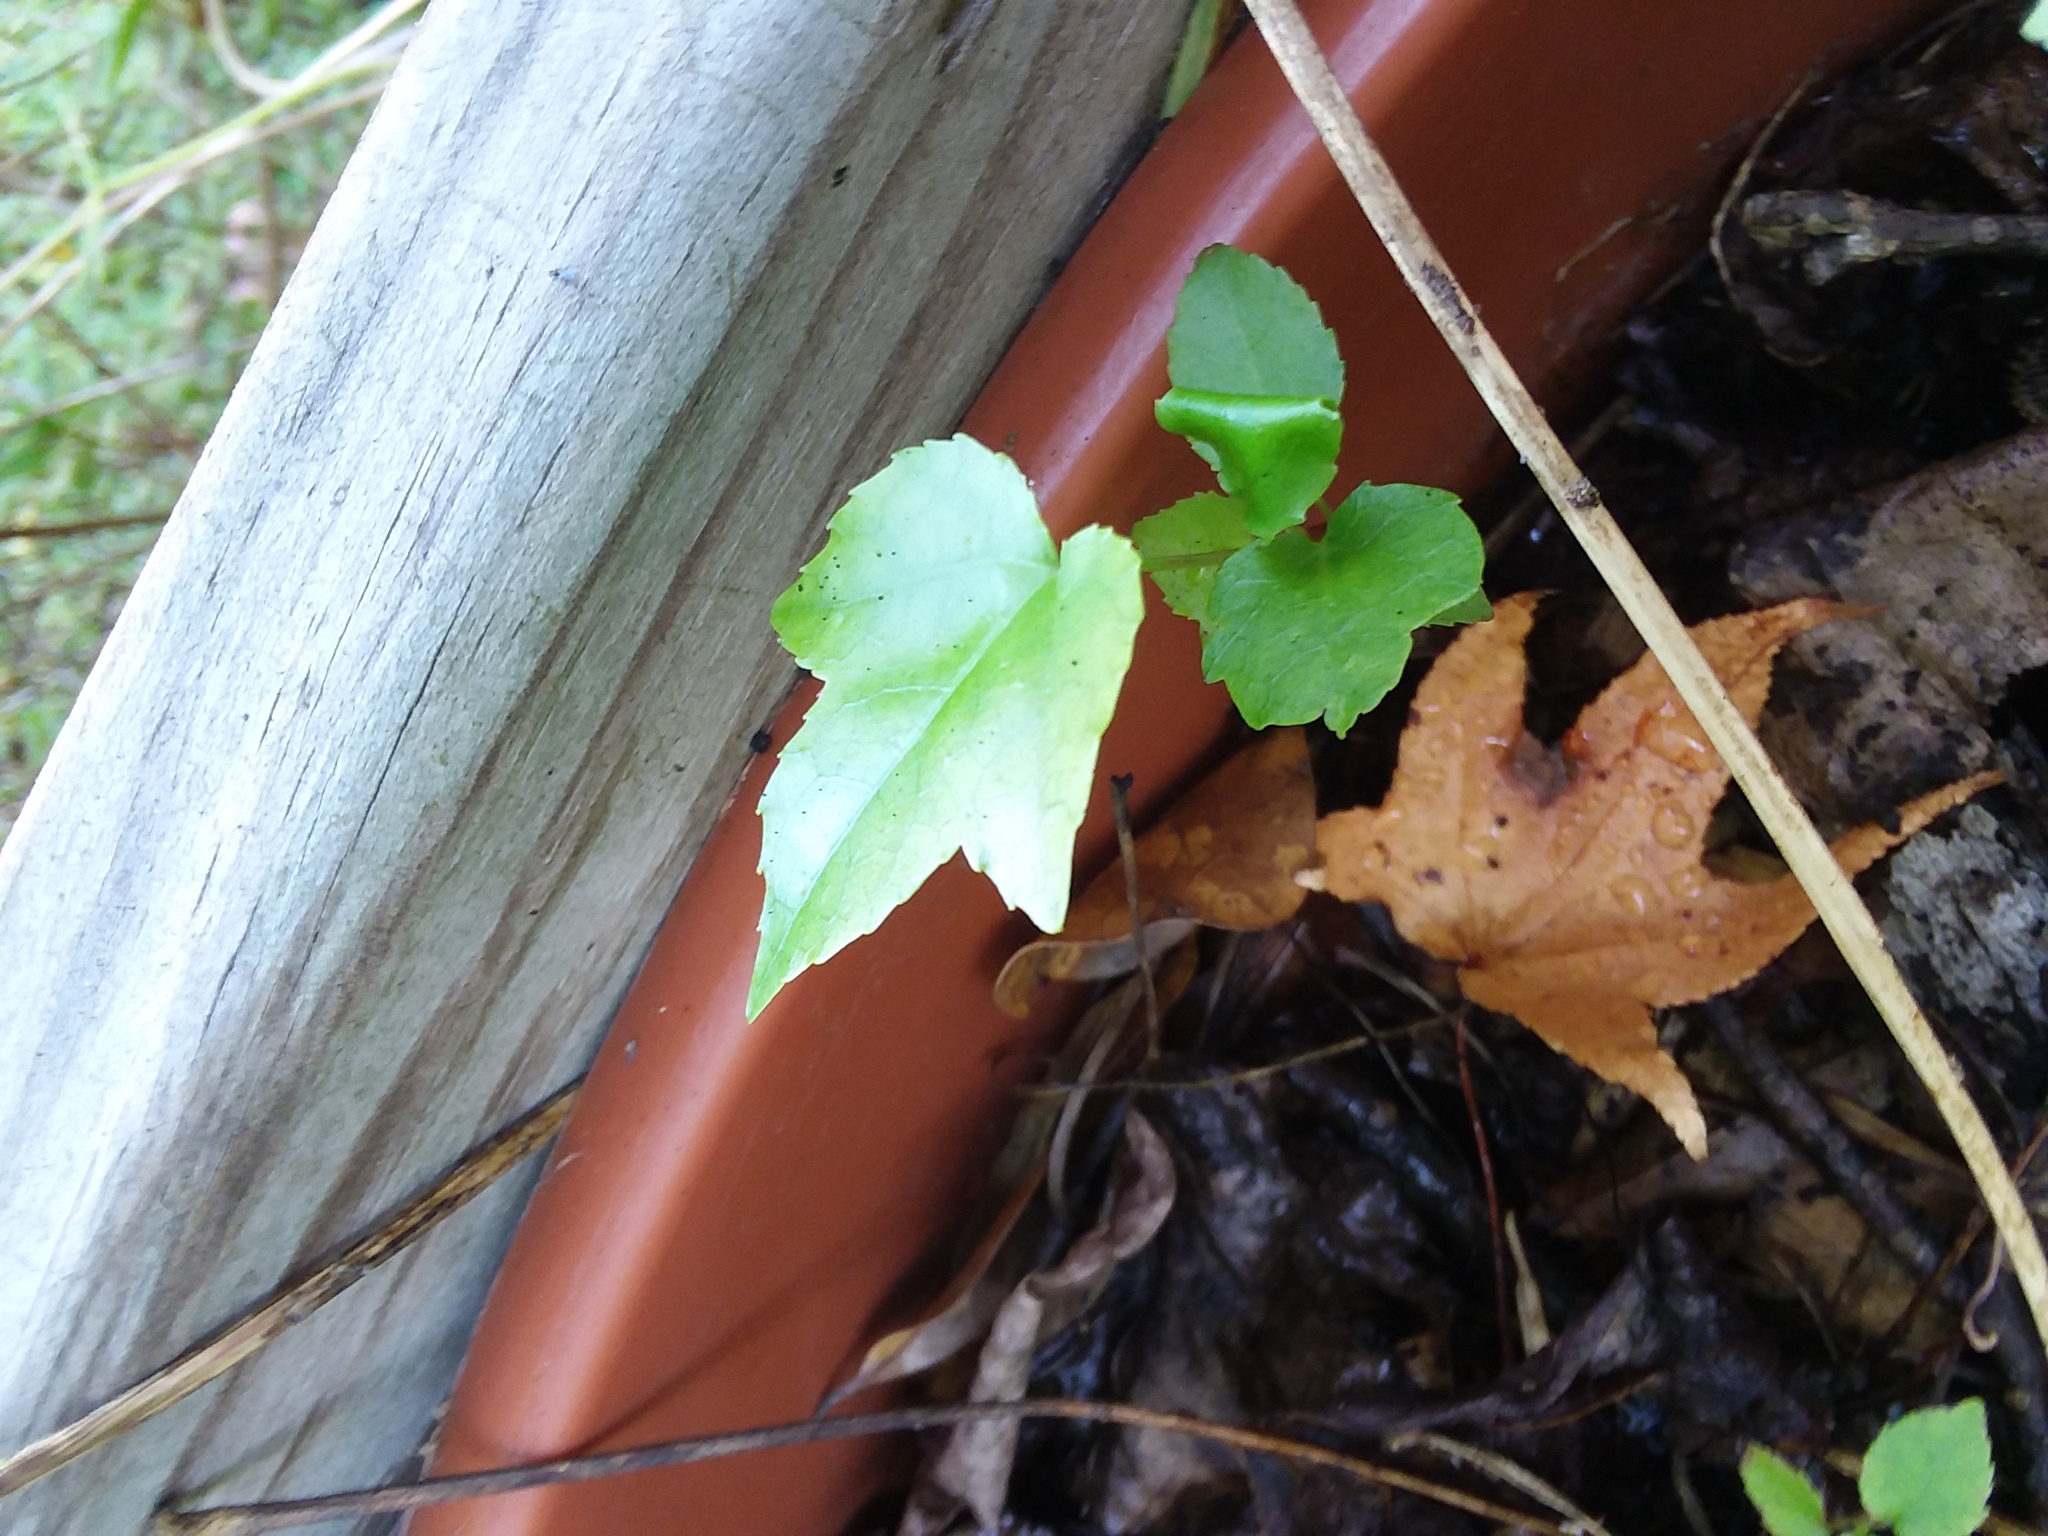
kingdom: Plantae
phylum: Tracheophyta
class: Magnoliopsida
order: Saxifragales
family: Altingiaceae
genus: Liquidambar
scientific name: Liquidambar styraciflua
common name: Sweet gum
